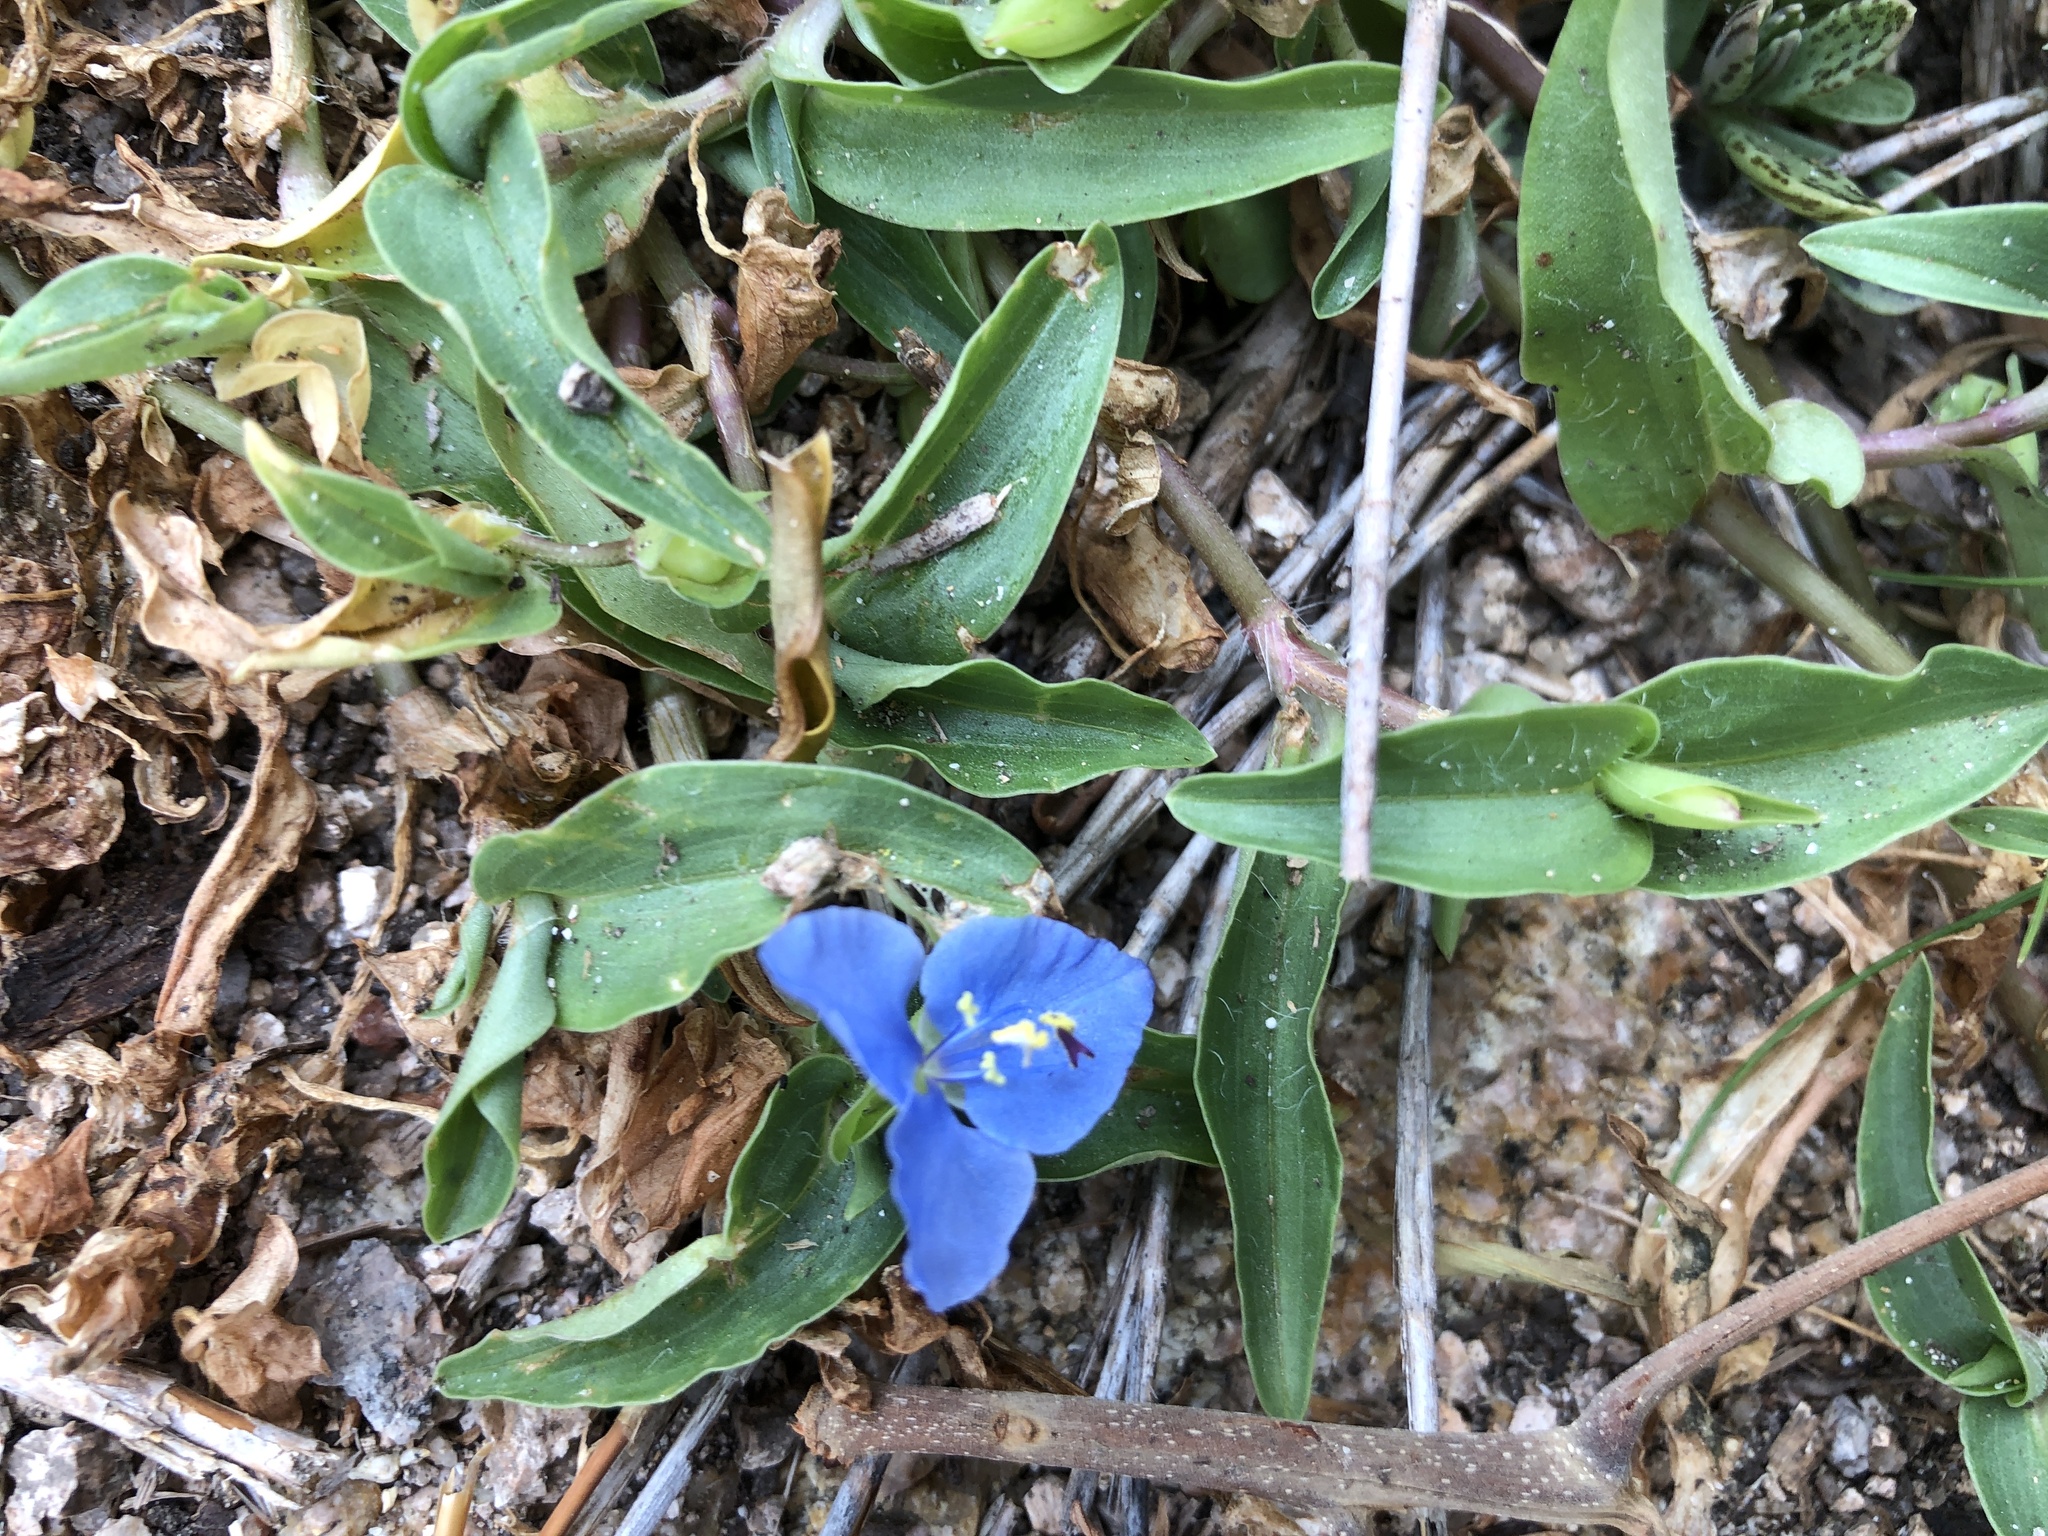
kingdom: Plantae
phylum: Tracheophyta
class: Liliopsida
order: Commelinales
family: Commelinaceae
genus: Commelina
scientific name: Commelina cyanea
